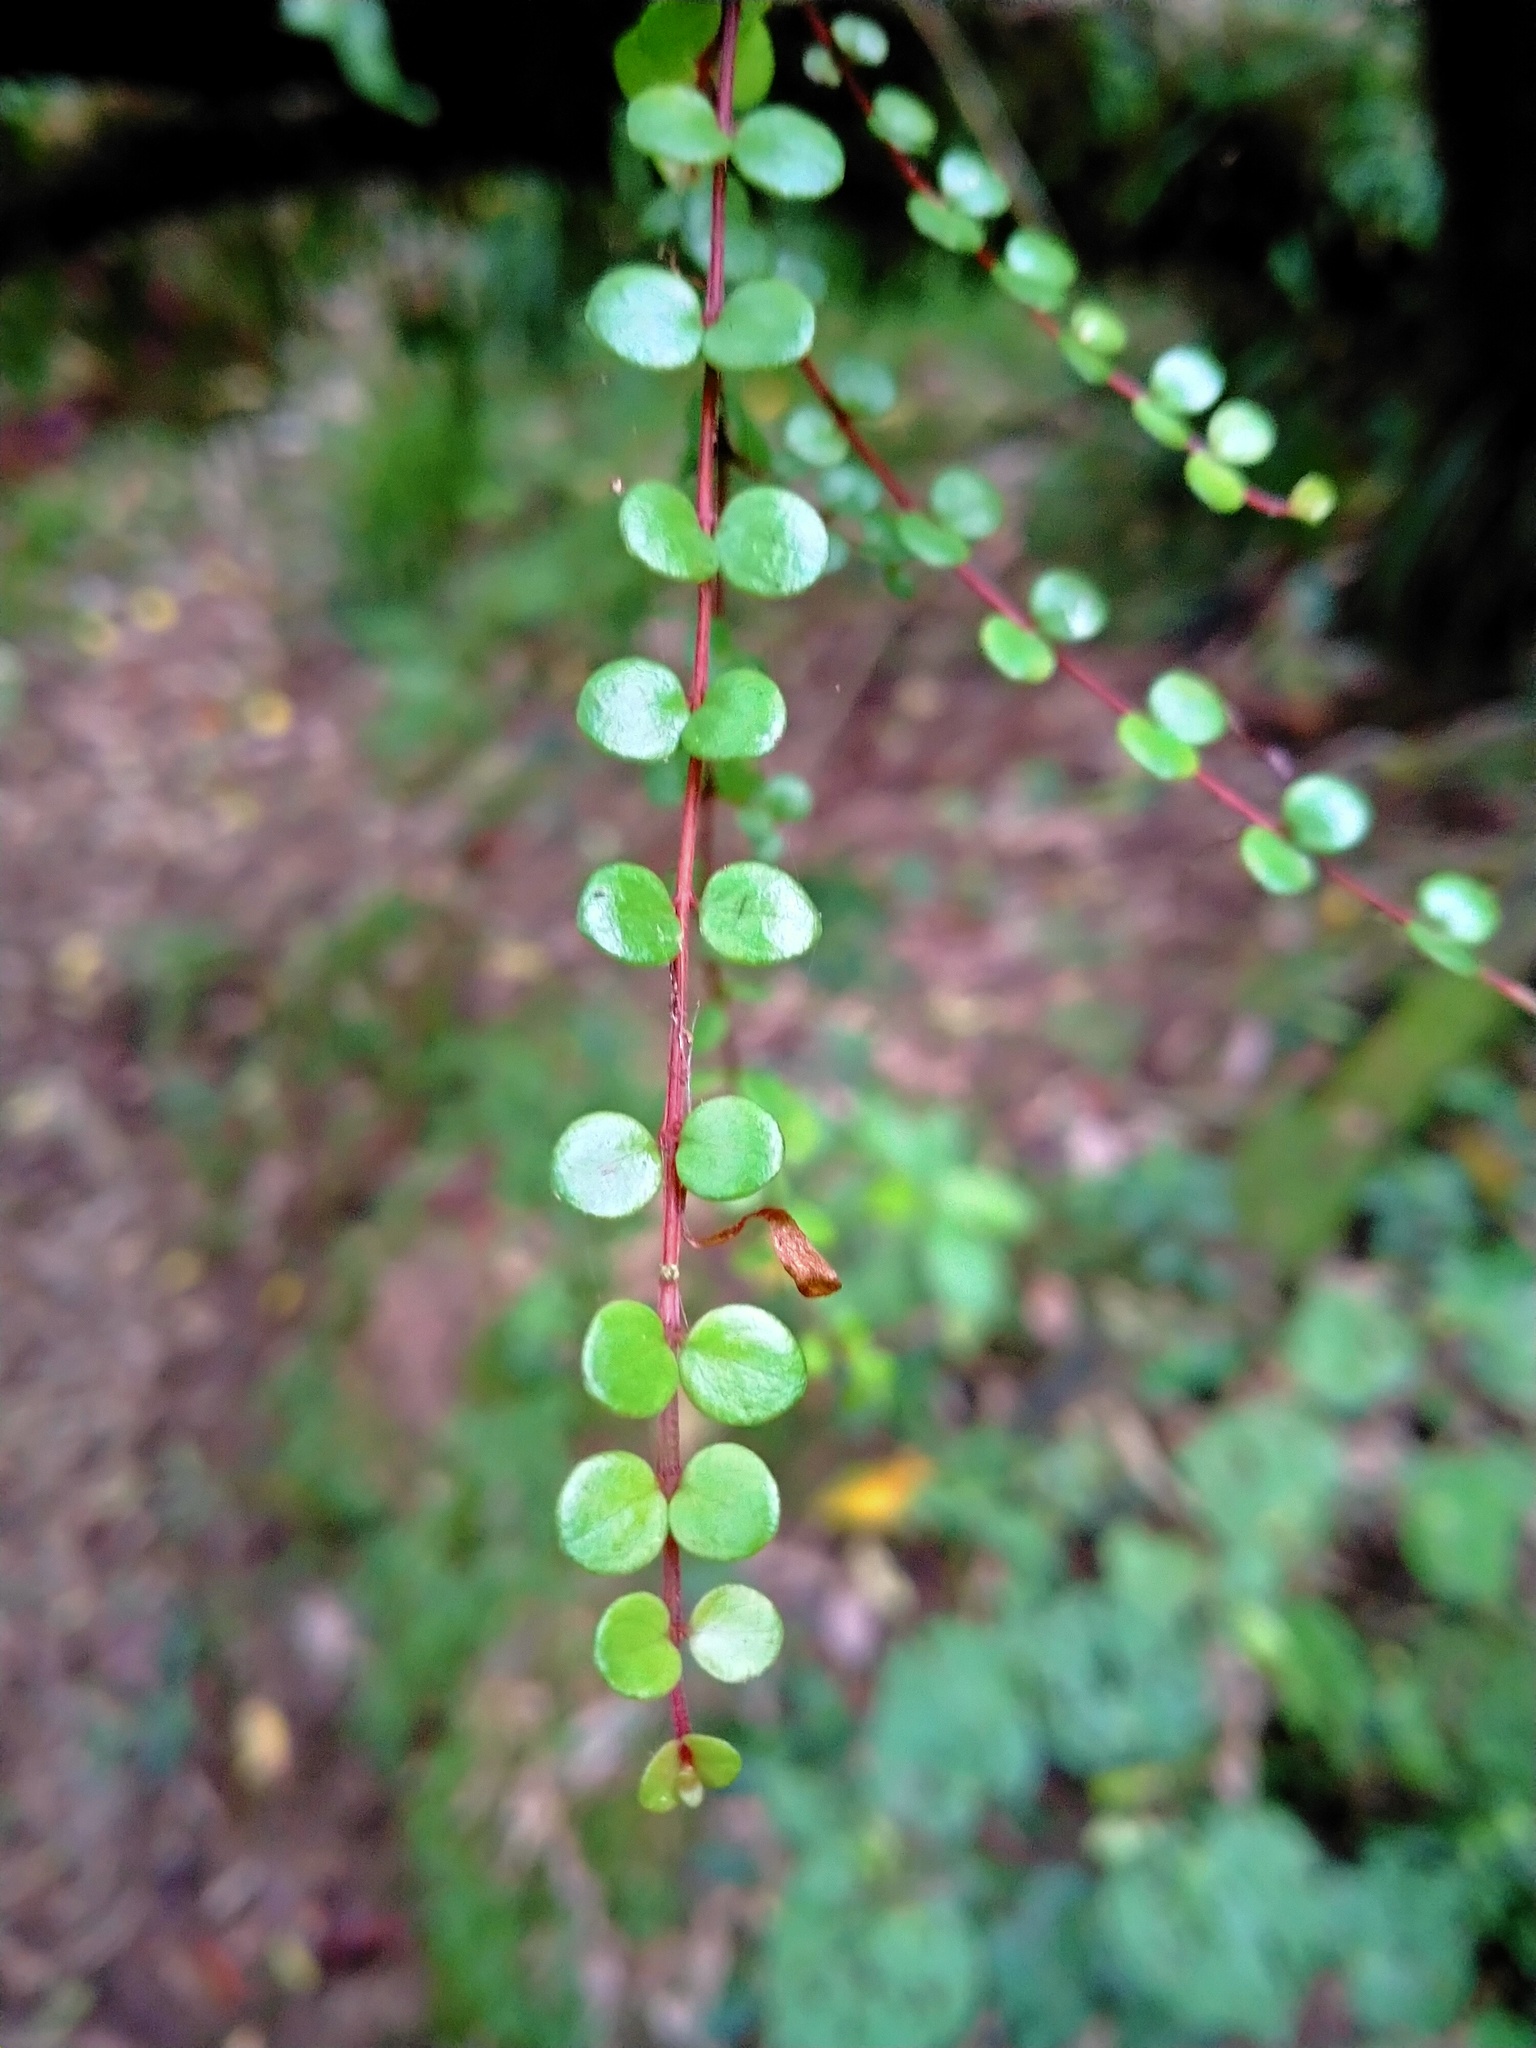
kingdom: Plantae
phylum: Tracheophyta
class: Magnoliopsida
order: Myrtales
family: Myrtaceae
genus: Metrosideros
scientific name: Metrosideros perforata
